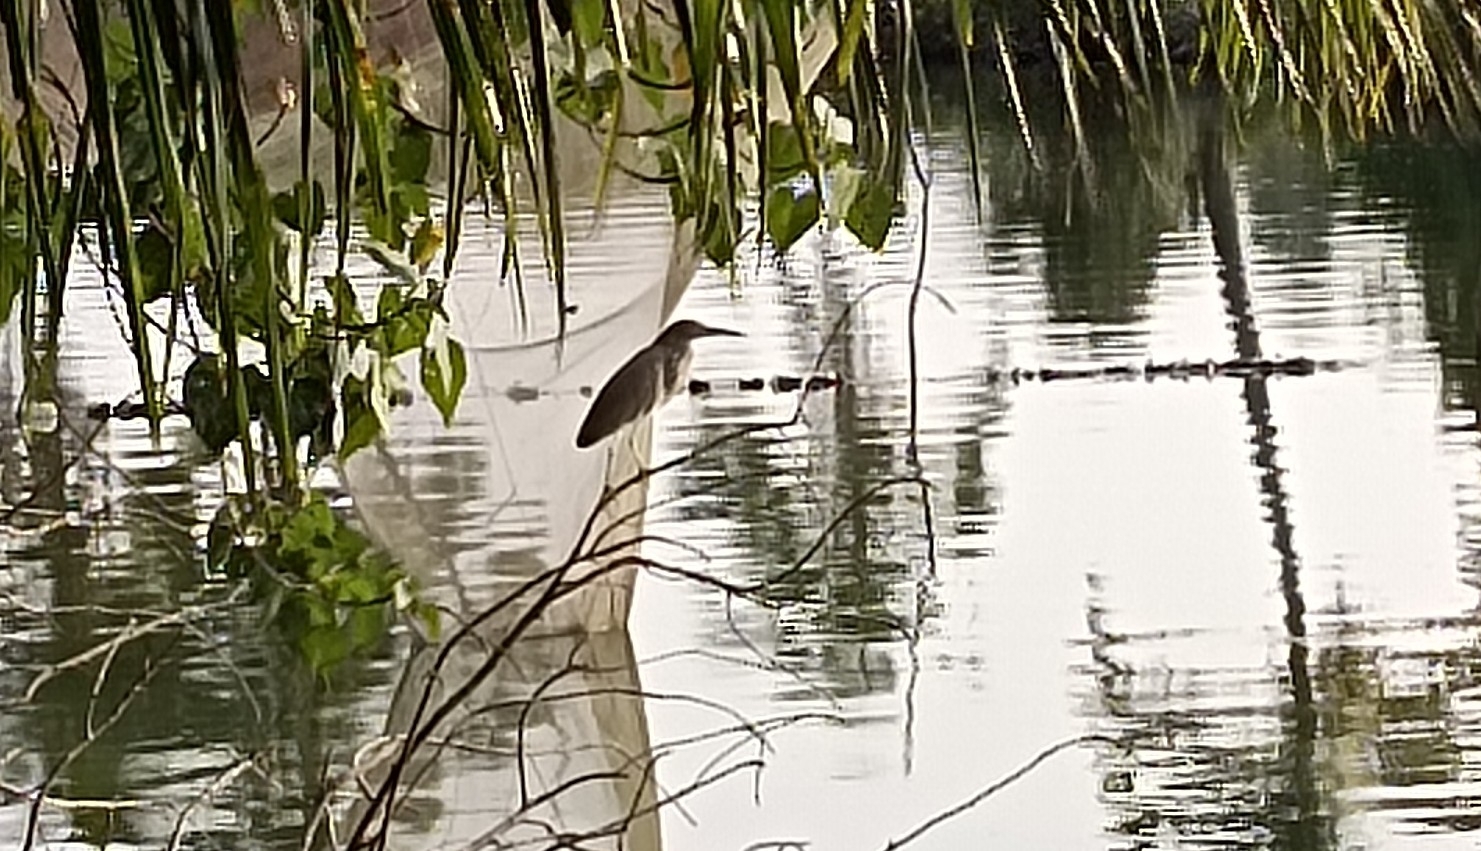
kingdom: Animalia
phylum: Chordata
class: Aves
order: Pelecaniformes
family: Ardeidae
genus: Ardeola
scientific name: Ardeola grayii
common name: Indian pond heron
